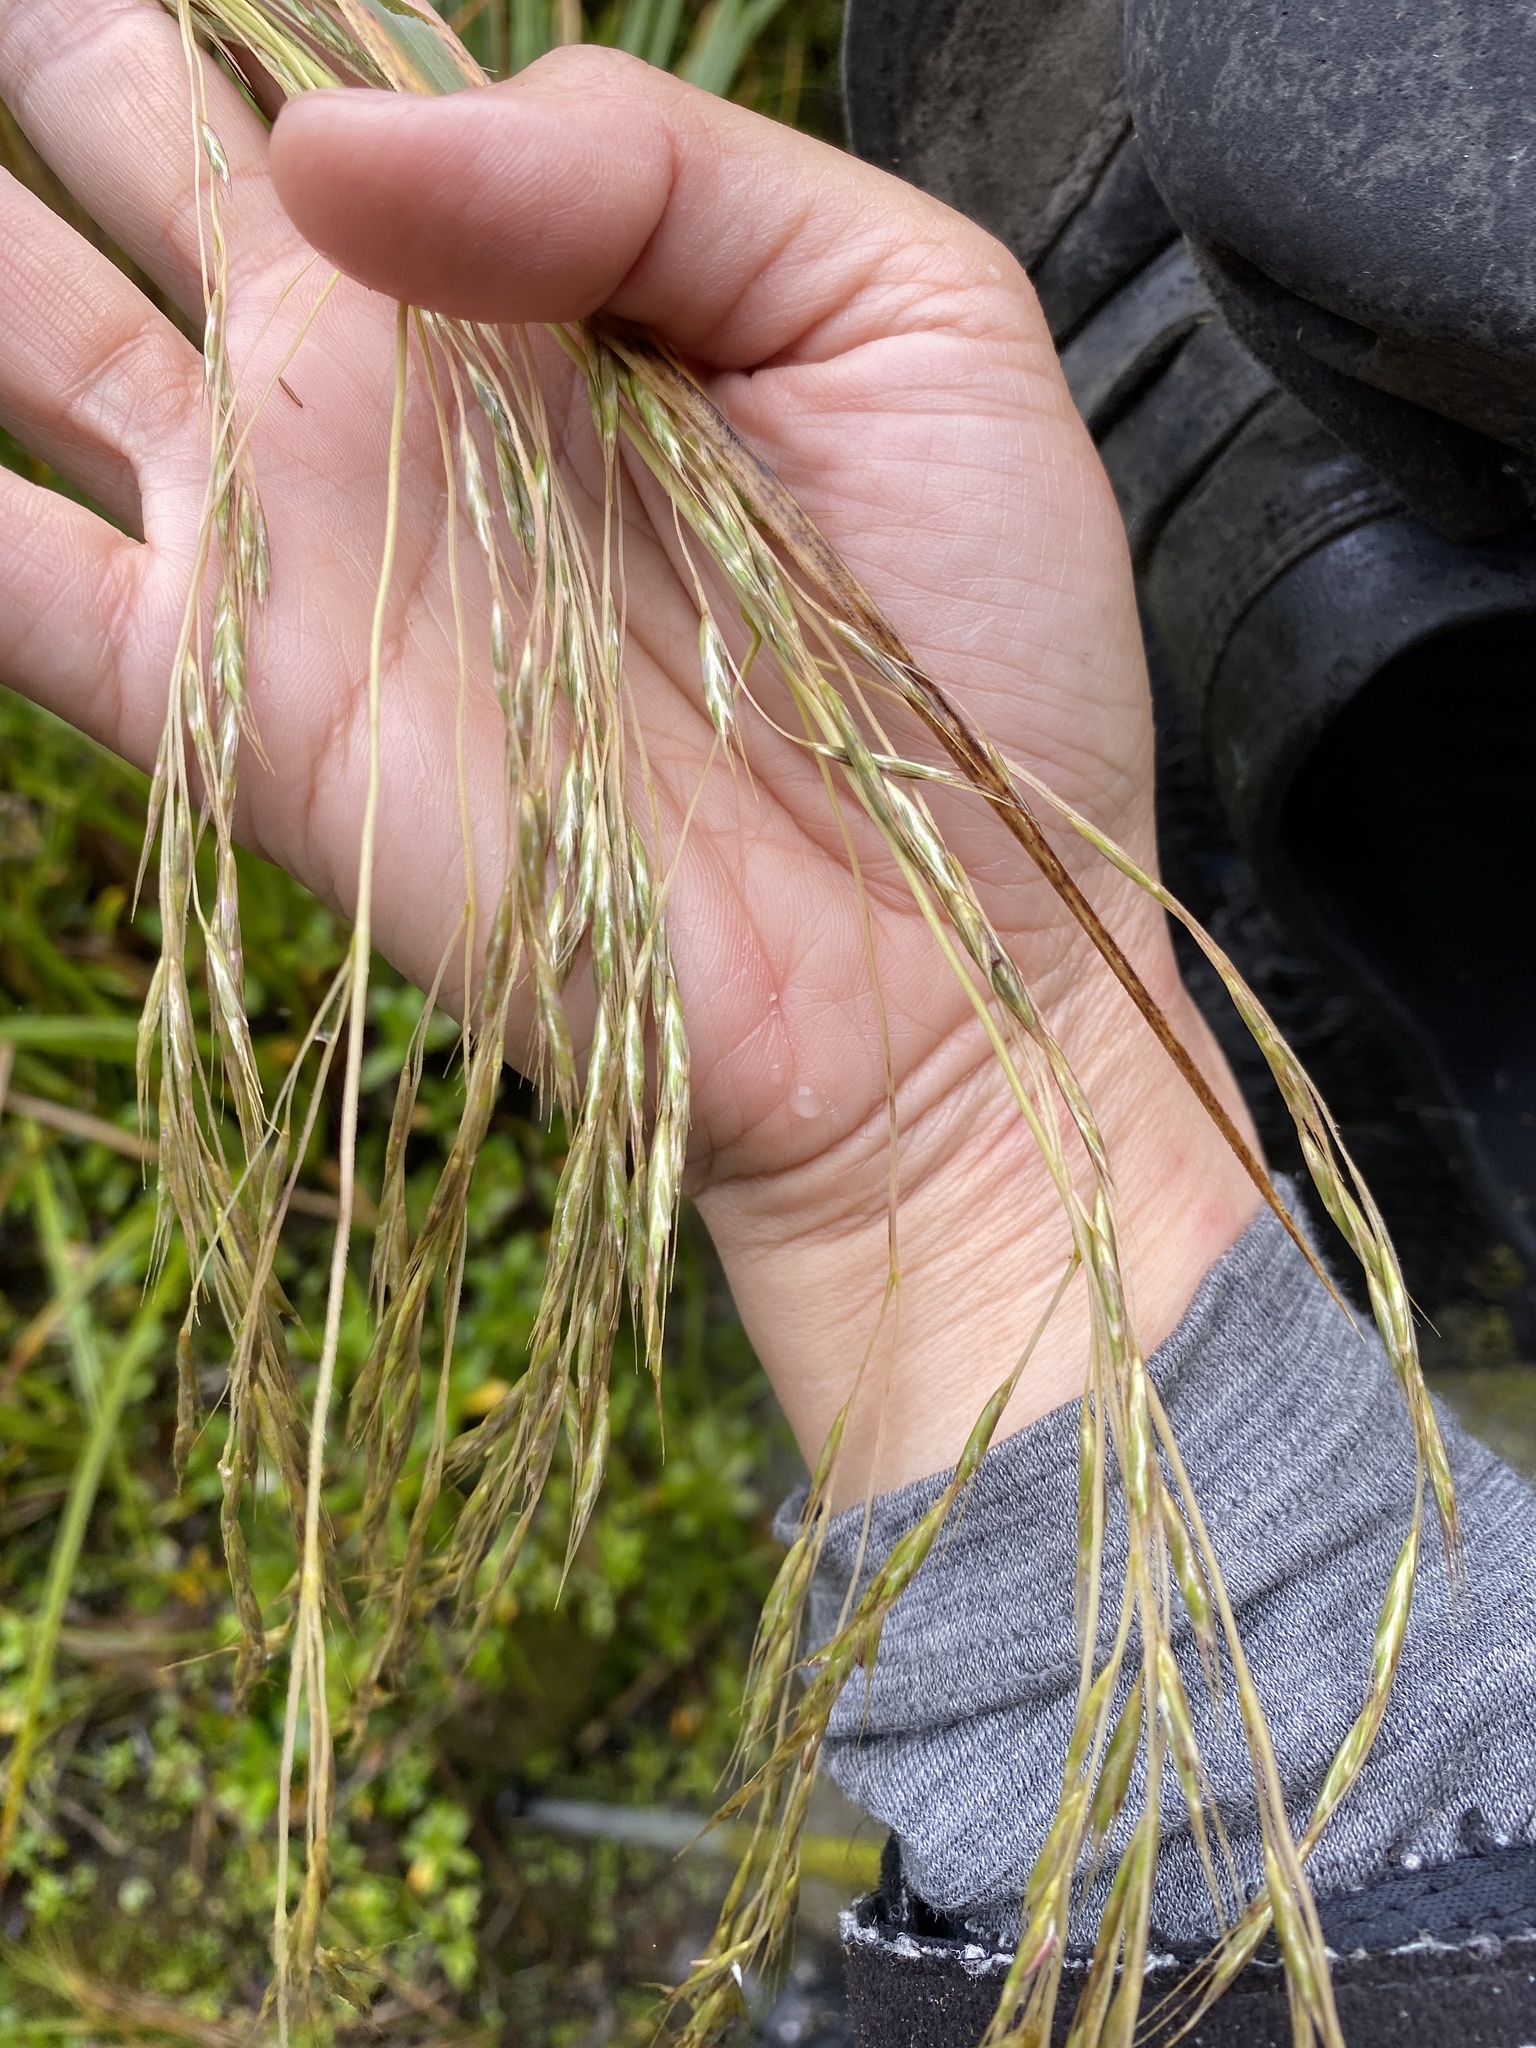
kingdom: Plantae
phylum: Tracheophyta
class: Liliopsida
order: Poales
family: Poaceae
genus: Chionochloa
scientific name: Chionochloa conspicua
